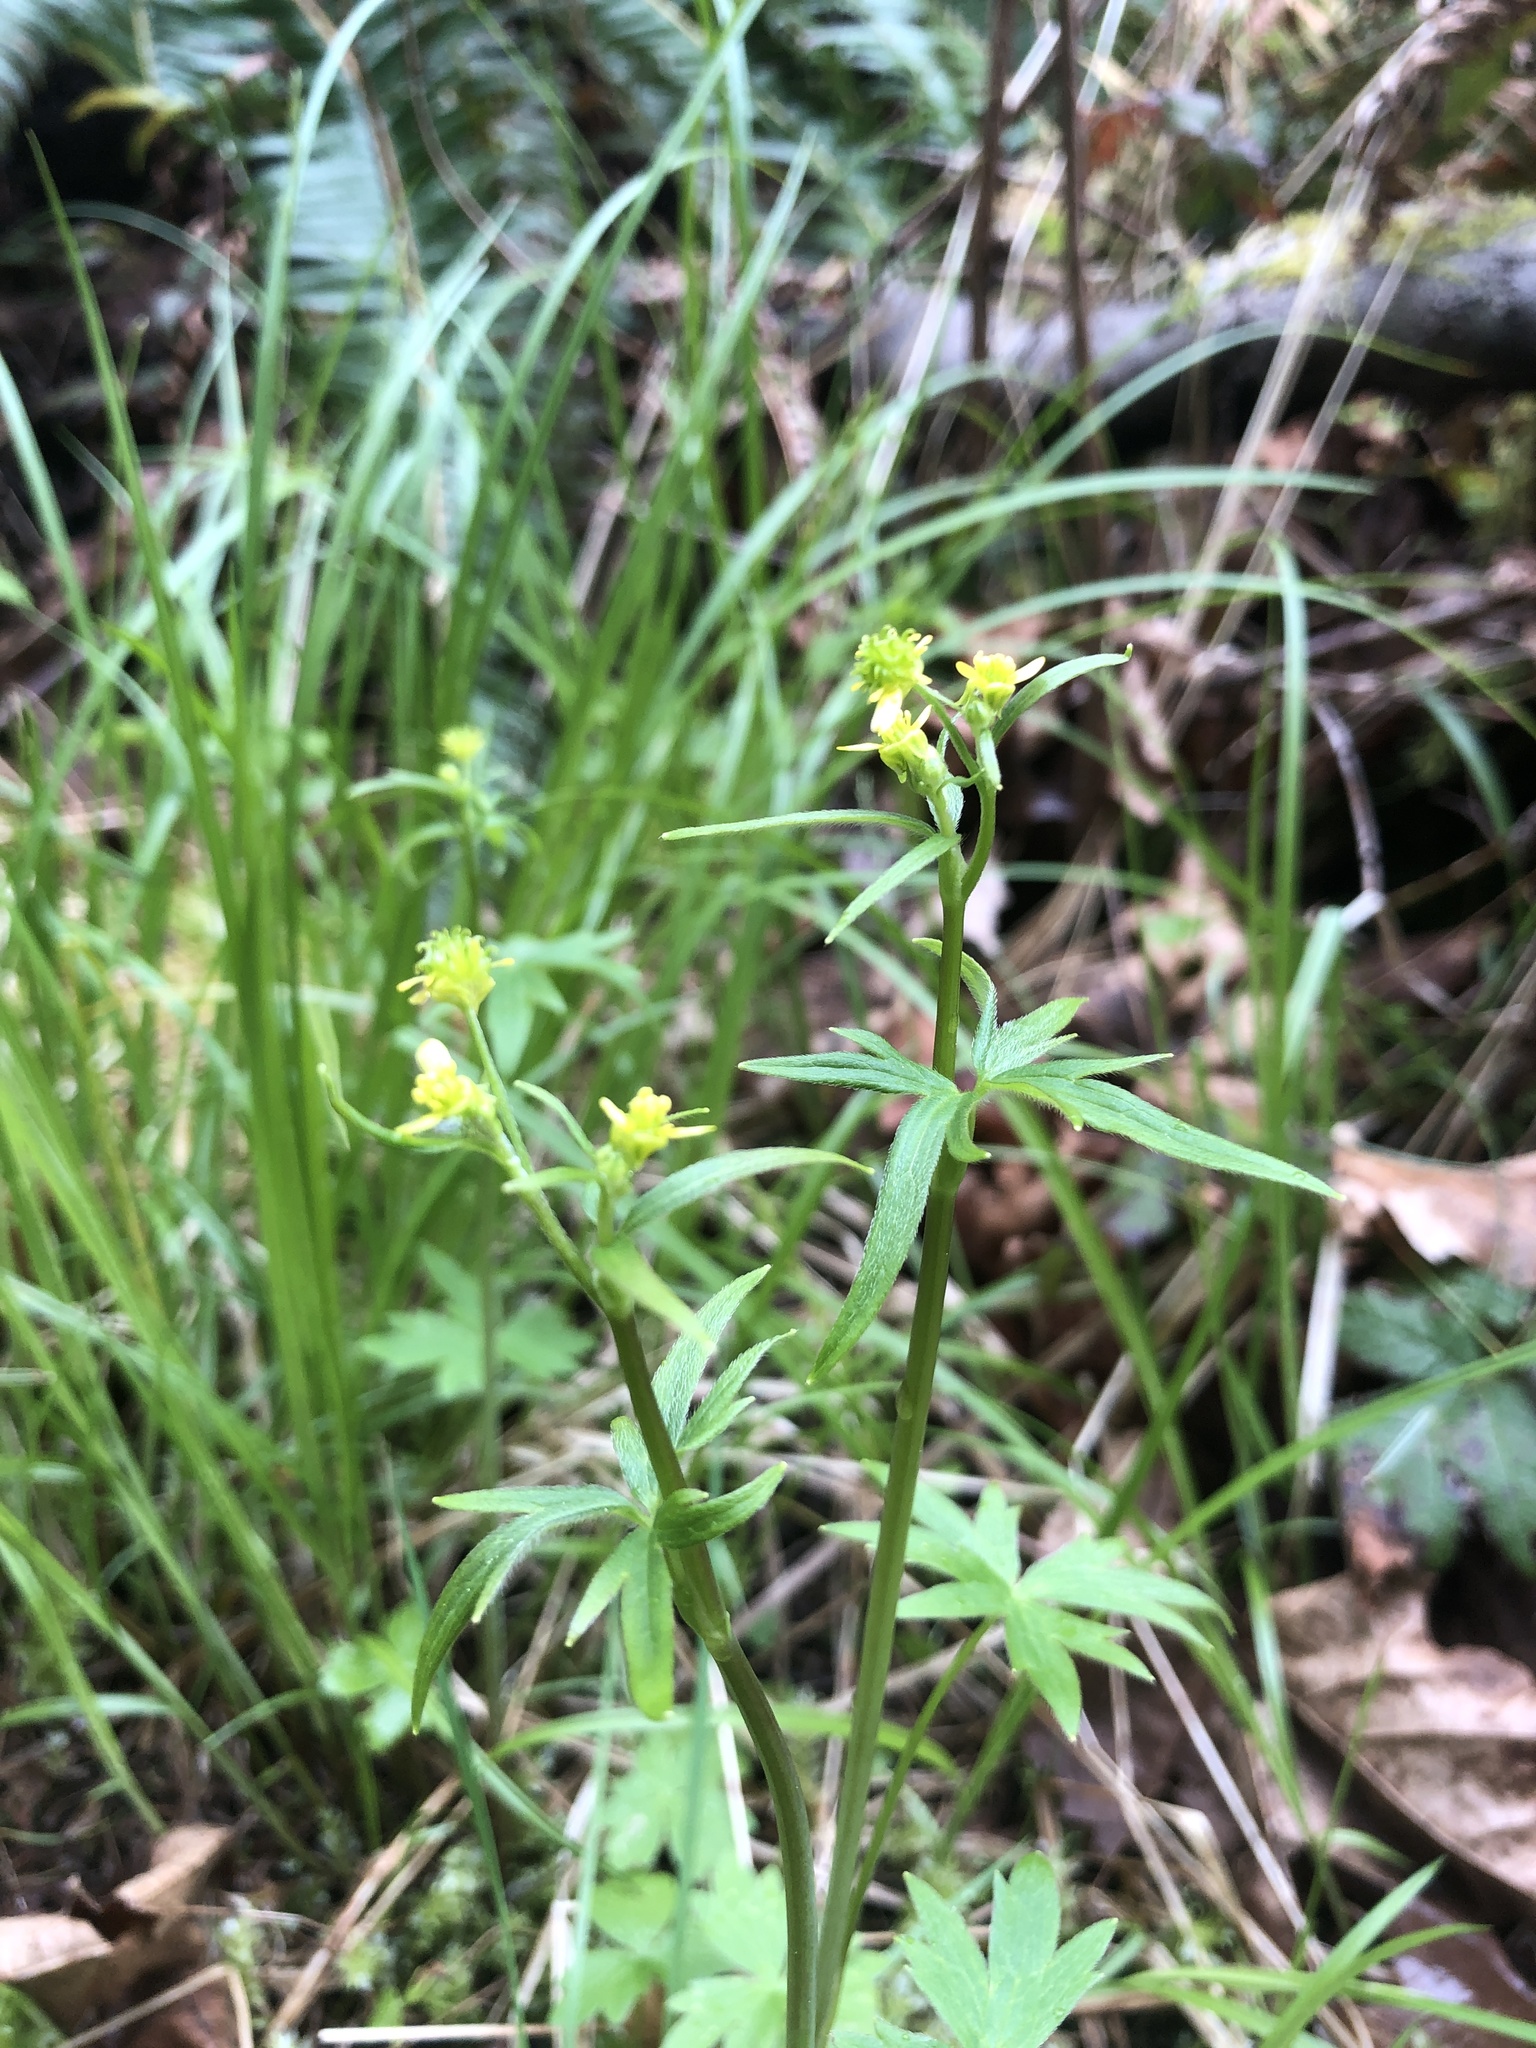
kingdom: Plantae
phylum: Tracheophyta
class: Magnoliopsida
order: Ranunculales
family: Ranunculaceae
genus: Ranunculus
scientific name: Ranunculus uncinatus
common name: Little buttercup
